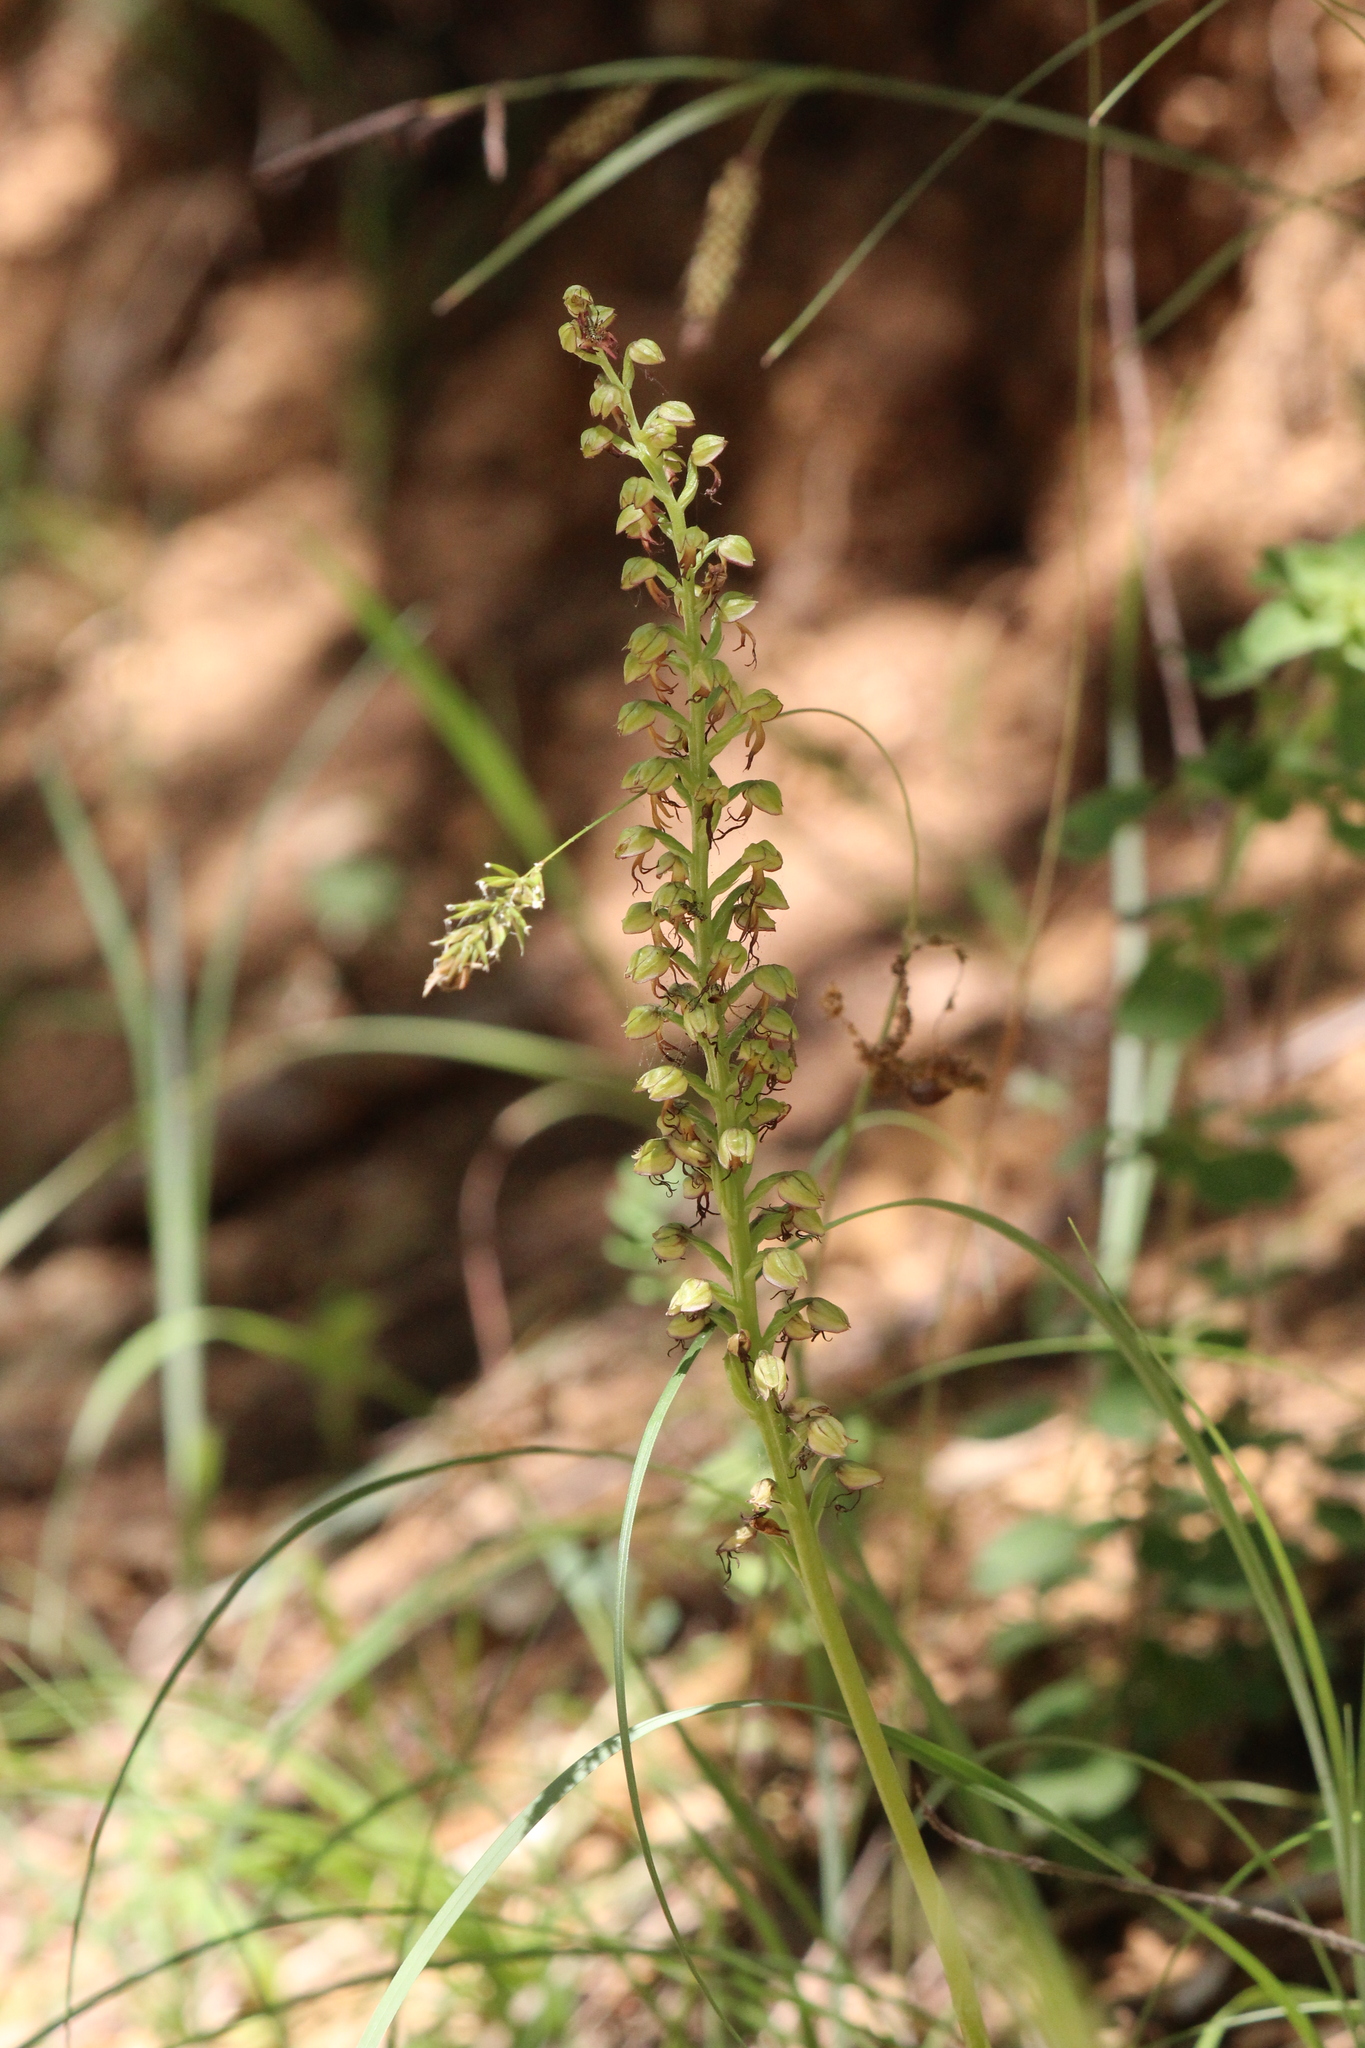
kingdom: Plantae
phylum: Tracheophyta
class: Liliopsida
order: Asparagales
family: Orchidaceae
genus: Orchis
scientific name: Orchis anthropophora
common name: Man orchid
